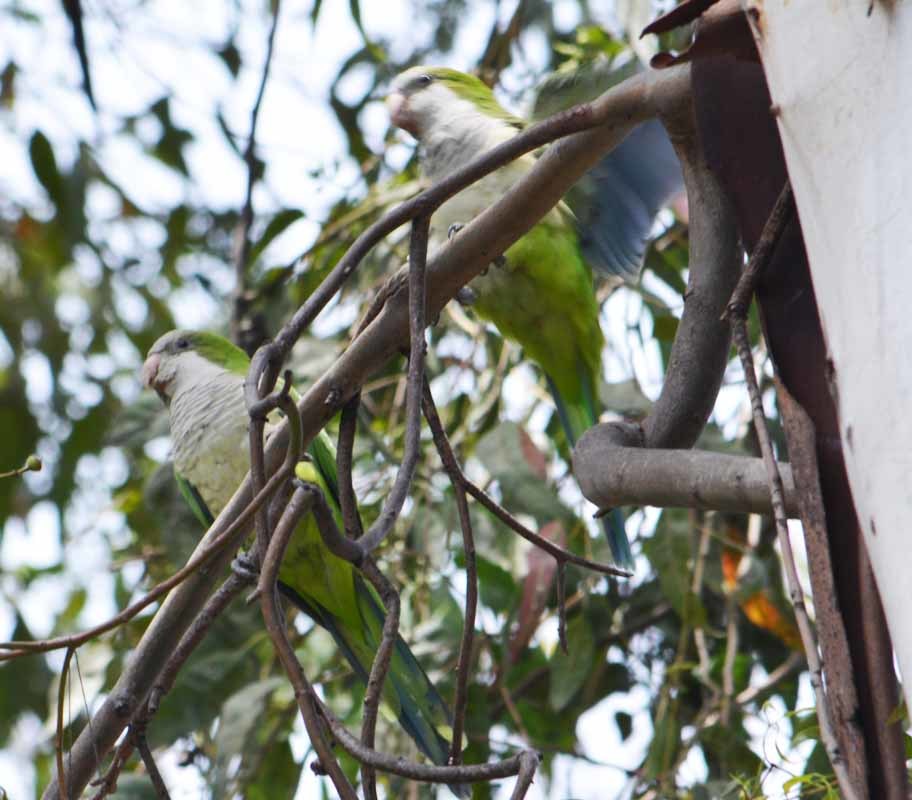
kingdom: Animalia
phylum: Chordata
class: Aves
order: Psittaciformes
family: Psittacidae
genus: Myiopsitta
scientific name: Myiopsitta monachus
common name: Monk parakeet
